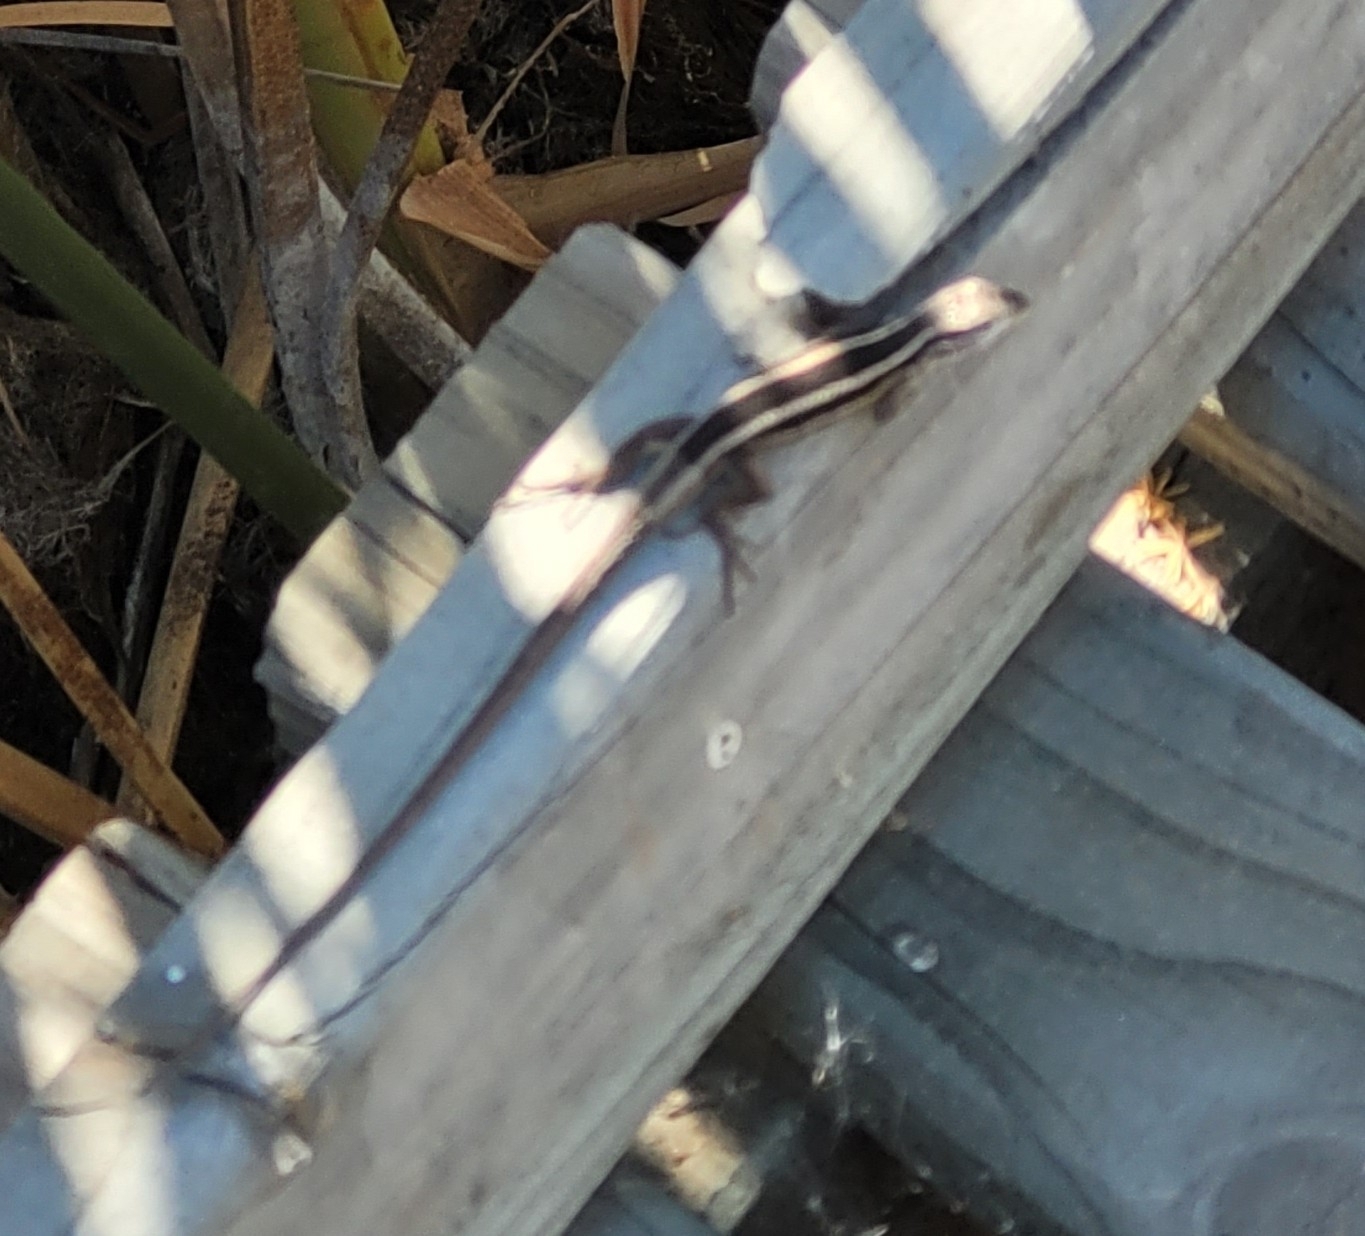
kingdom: Animalia
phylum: Chordata
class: Squamata
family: Liolaemidae
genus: Liolaemus
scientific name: Liolaemus gravenhorstii
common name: Gravenhorst's tree iguana
